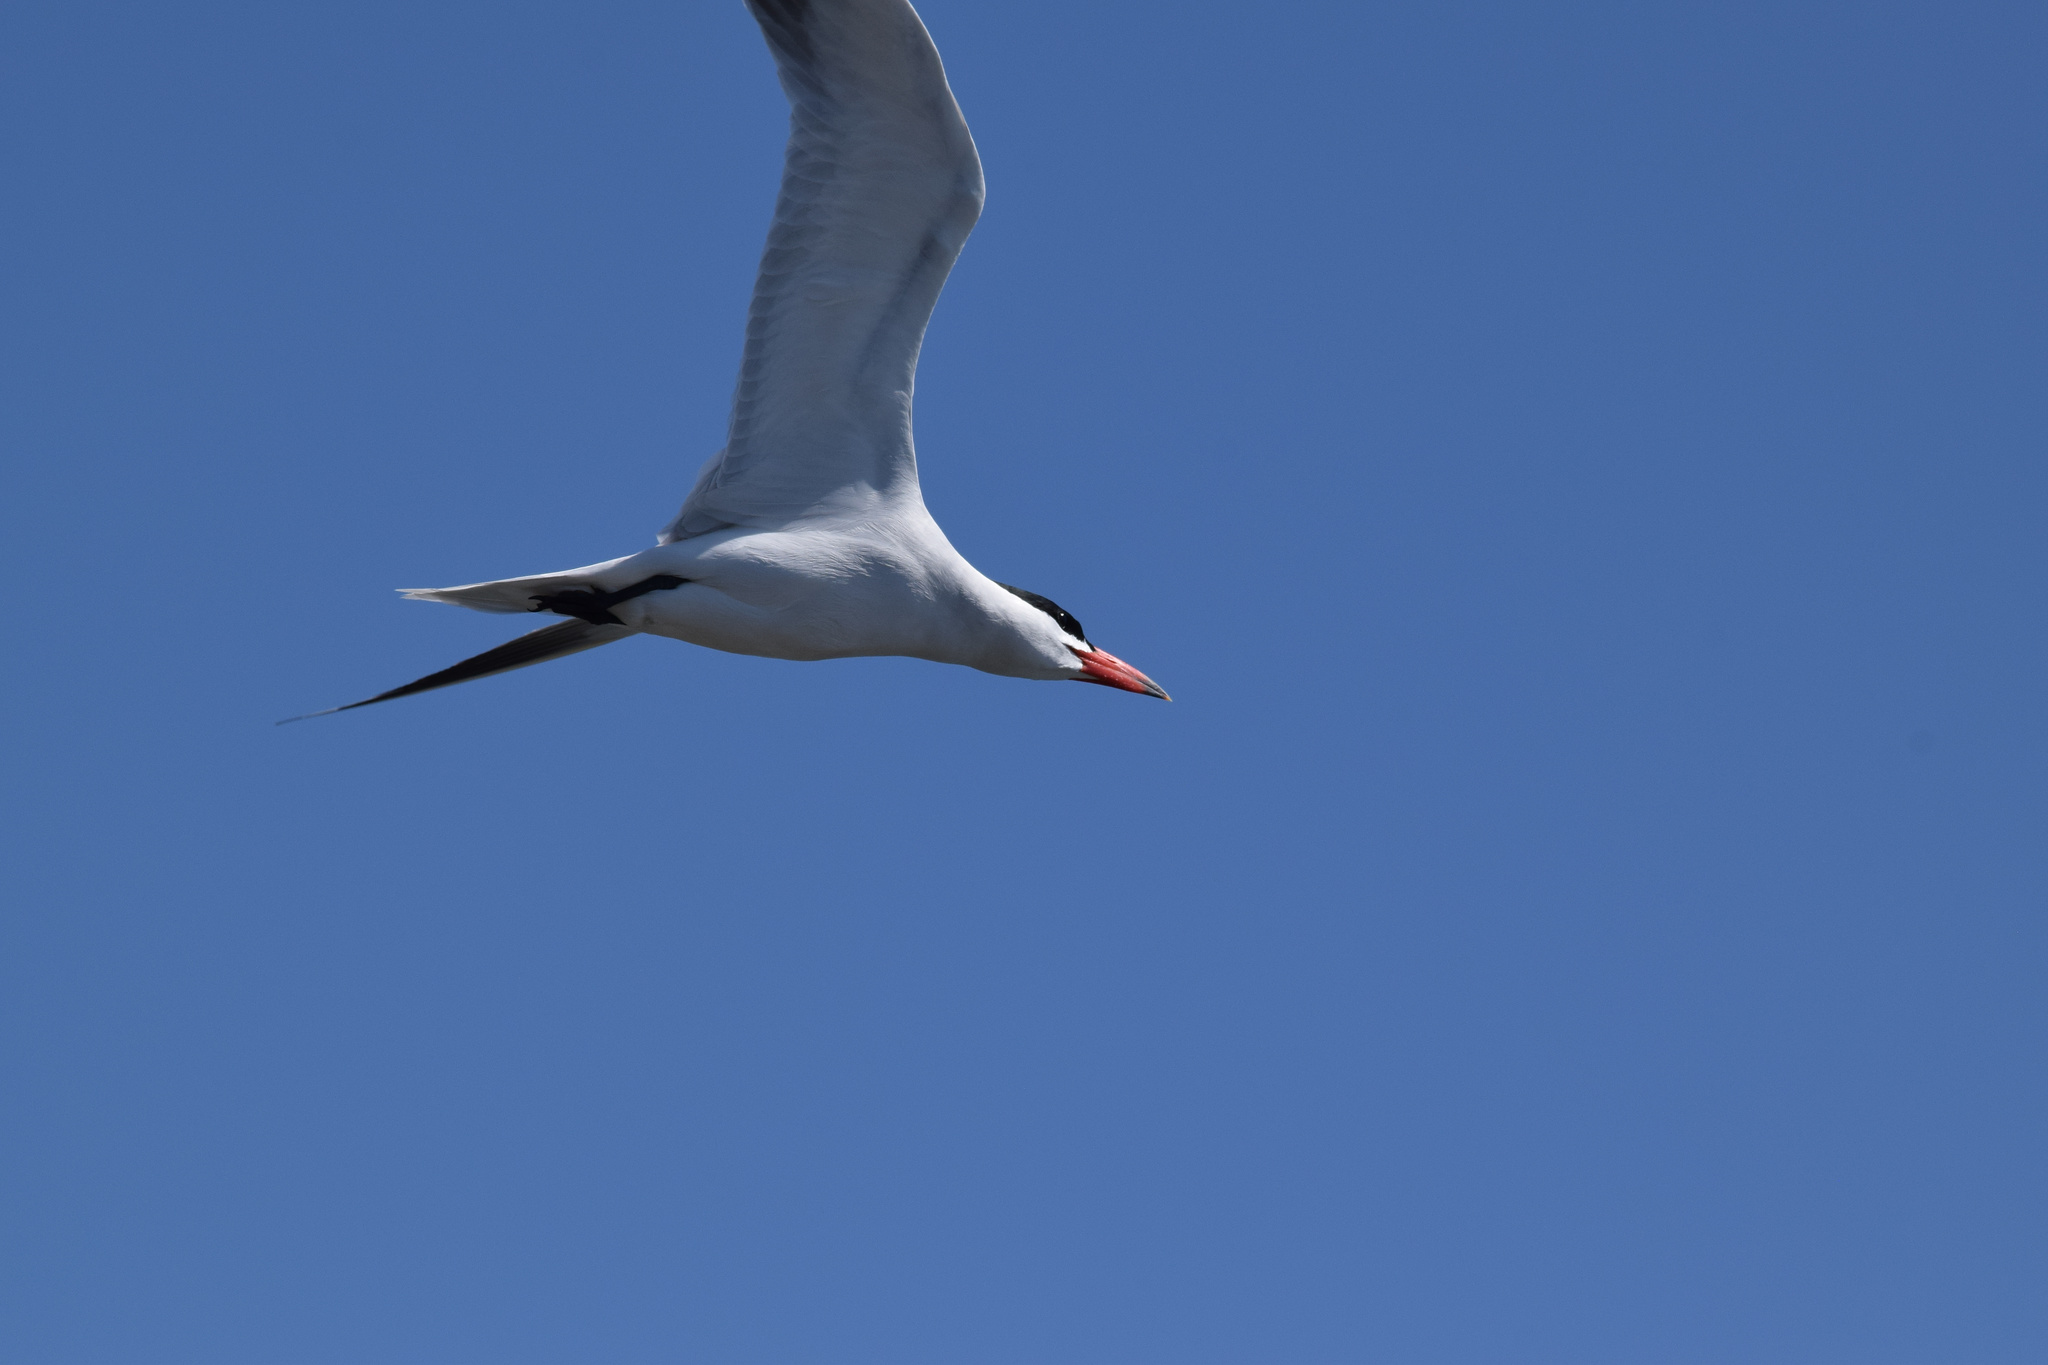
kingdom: Animalia
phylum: Chordata
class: Aves
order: Charadriiformes
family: Laridae
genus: Hydroprogne
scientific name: Hydroprogne caspia
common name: Caspian tern
